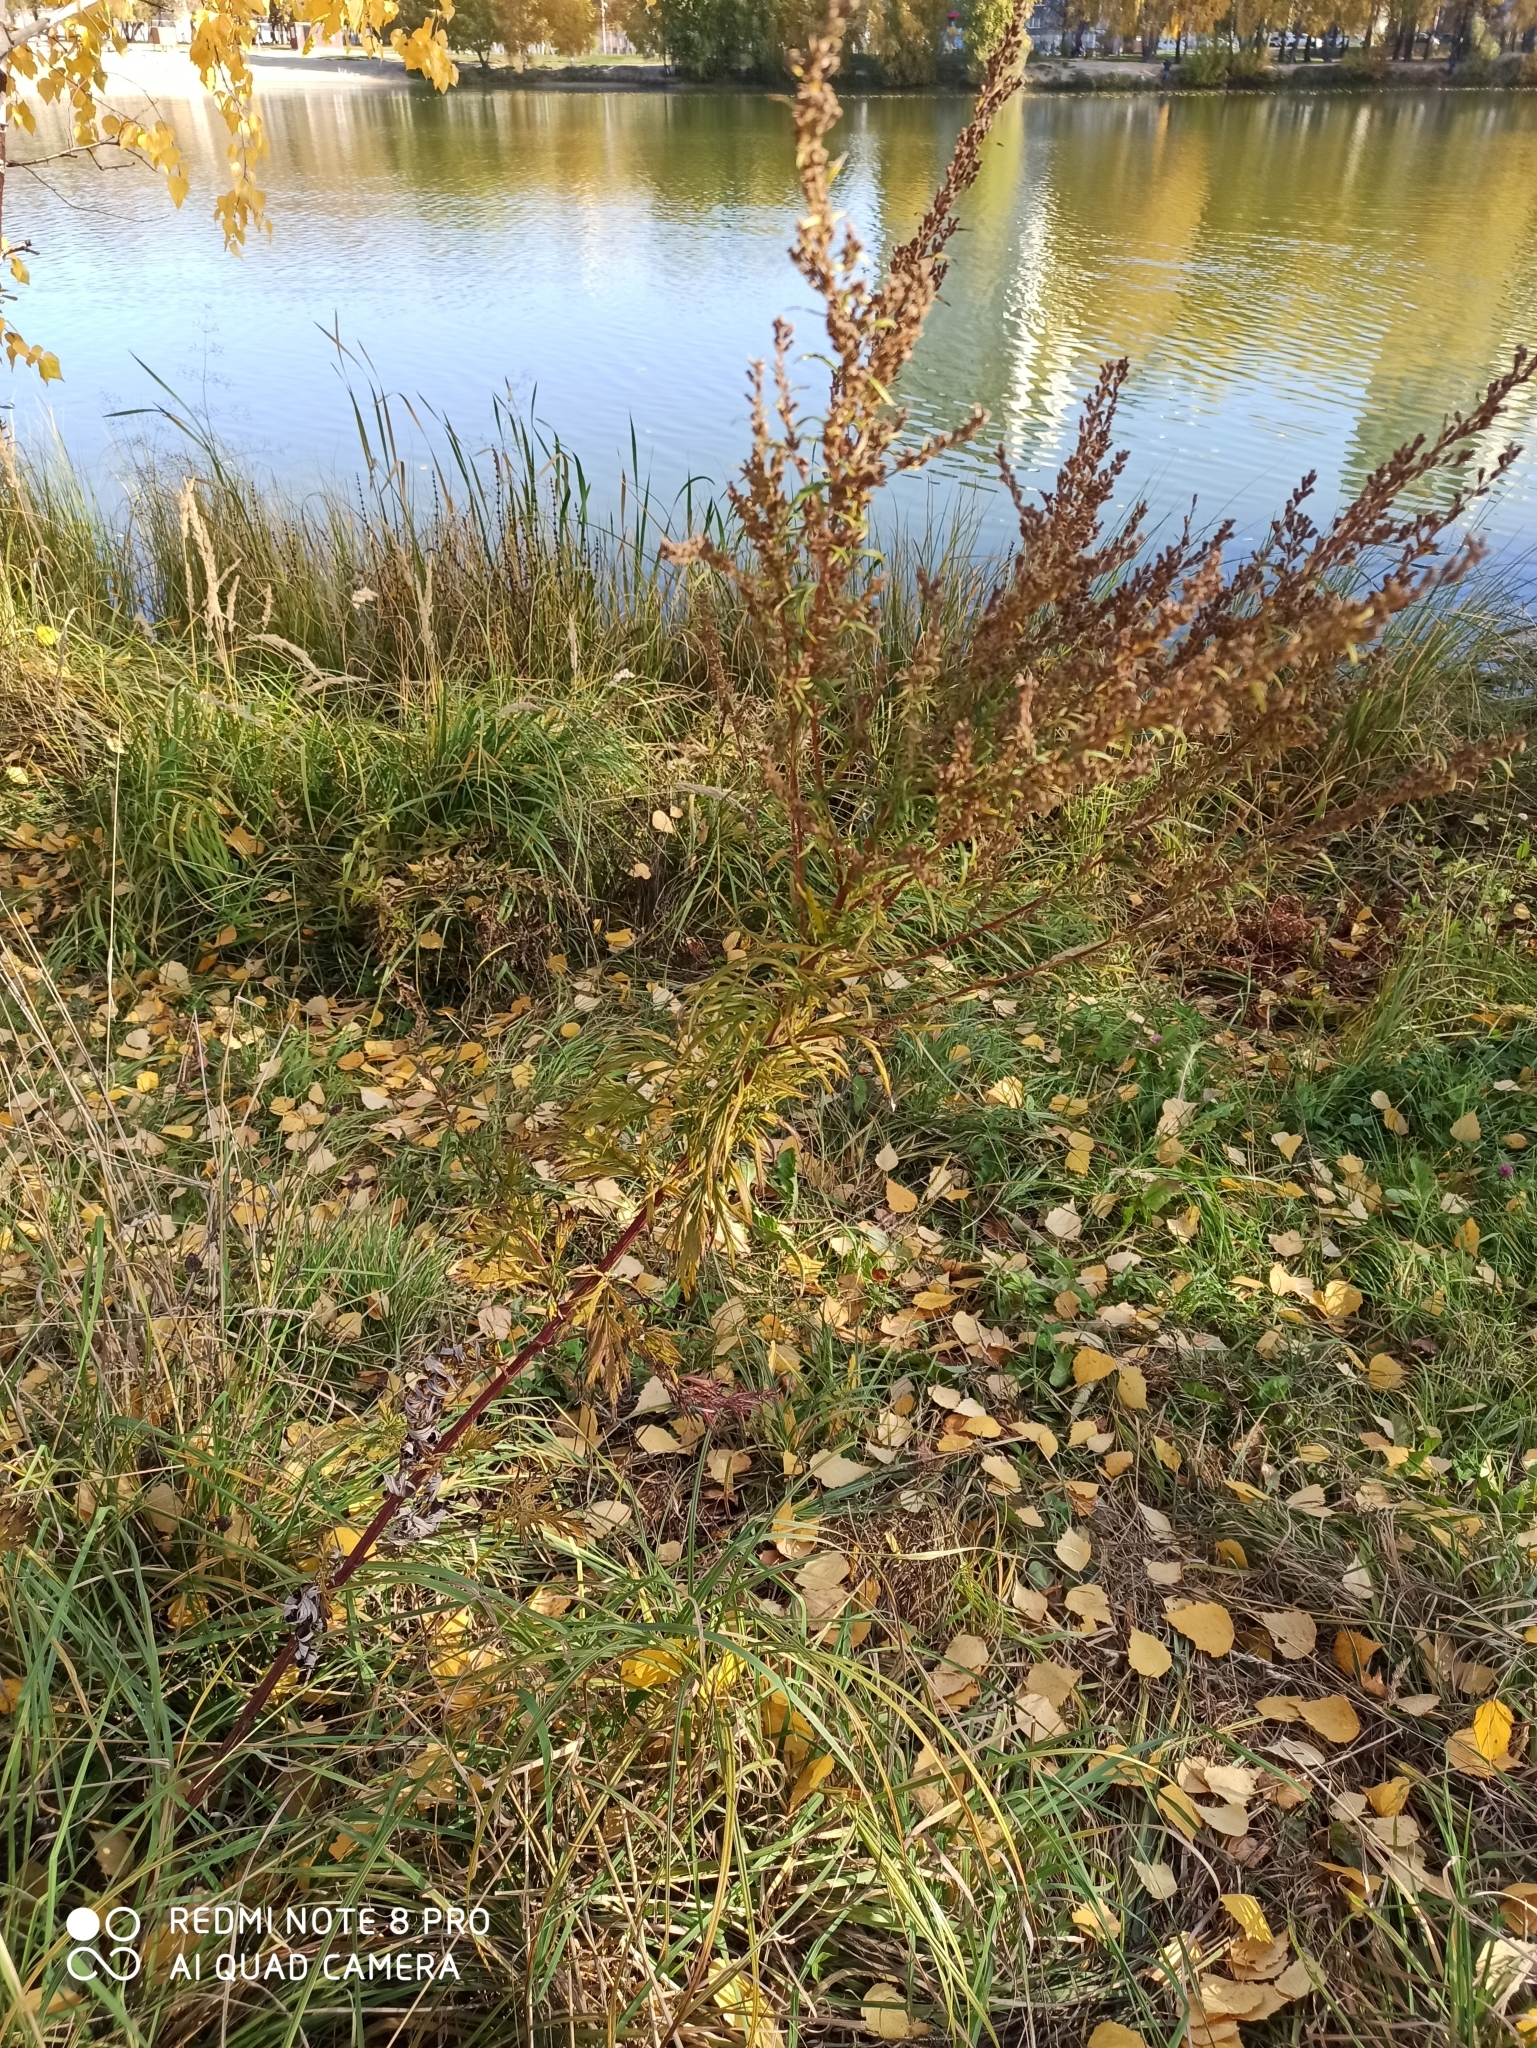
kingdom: Plantae
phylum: Tracheophyta
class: Magnoliopsida
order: Asterales
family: Asteraceae
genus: Artemisia
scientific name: Artemisia vulgaris
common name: Mugwort
